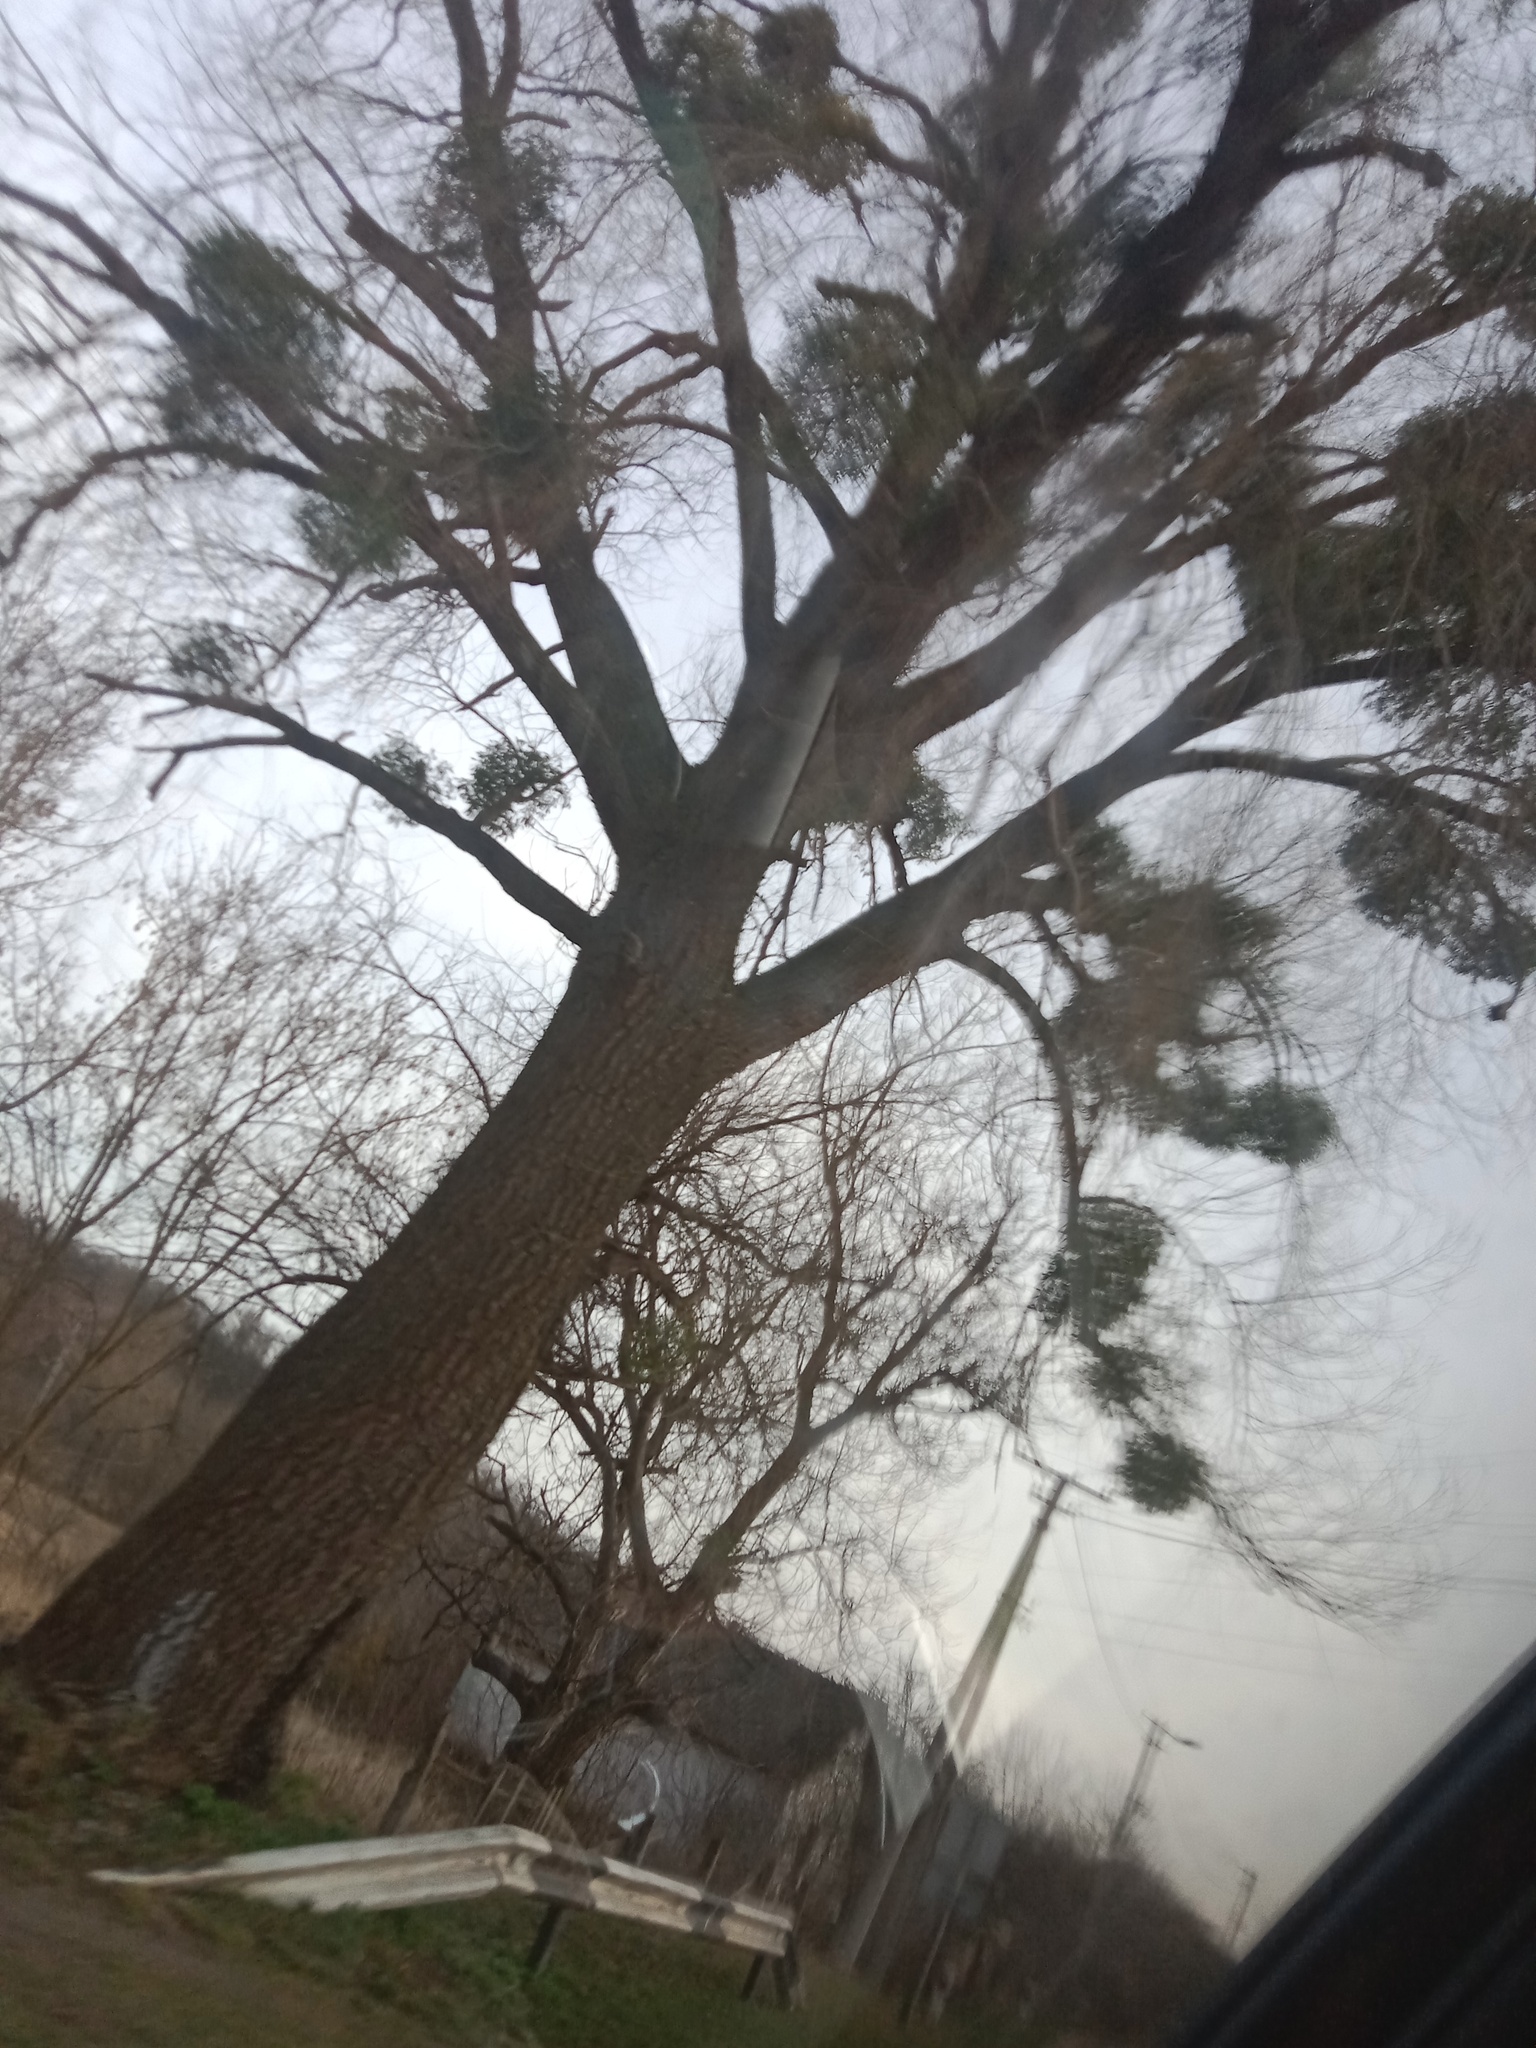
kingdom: Plantae
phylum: Tracheophyta
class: Magnoliopsida
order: Santalales
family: Viscaceae
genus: Viscum
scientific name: Viscum album
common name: Mistletoe
